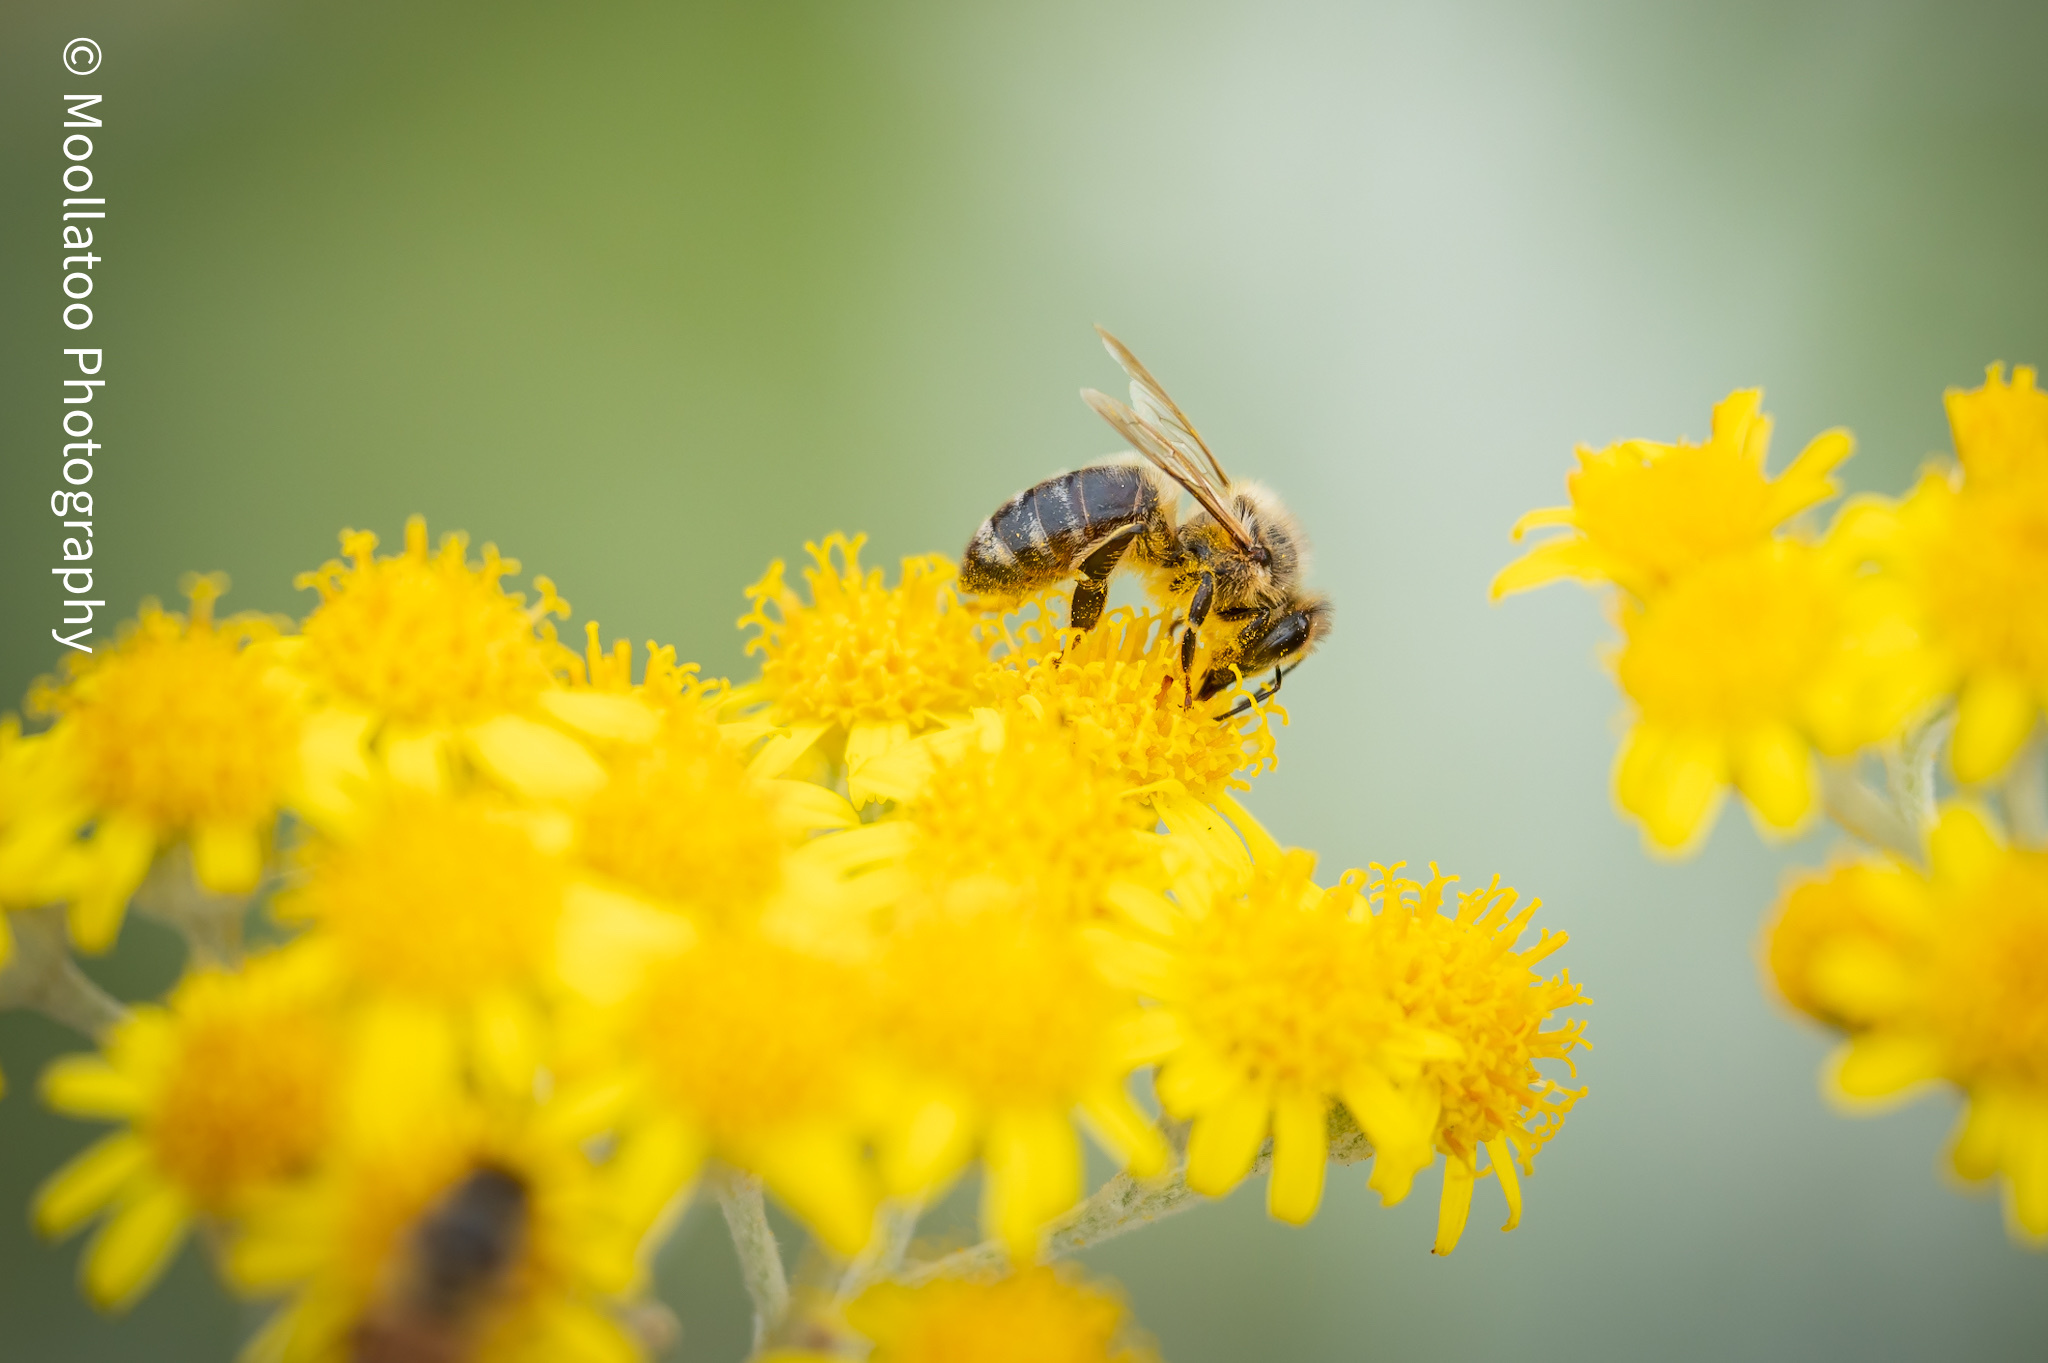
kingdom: Animalia
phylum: Arthropoda
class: Insecta
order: Hymenoptera
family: Apidae
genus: Apis
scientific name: Apis mellifera
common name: Honey bee
